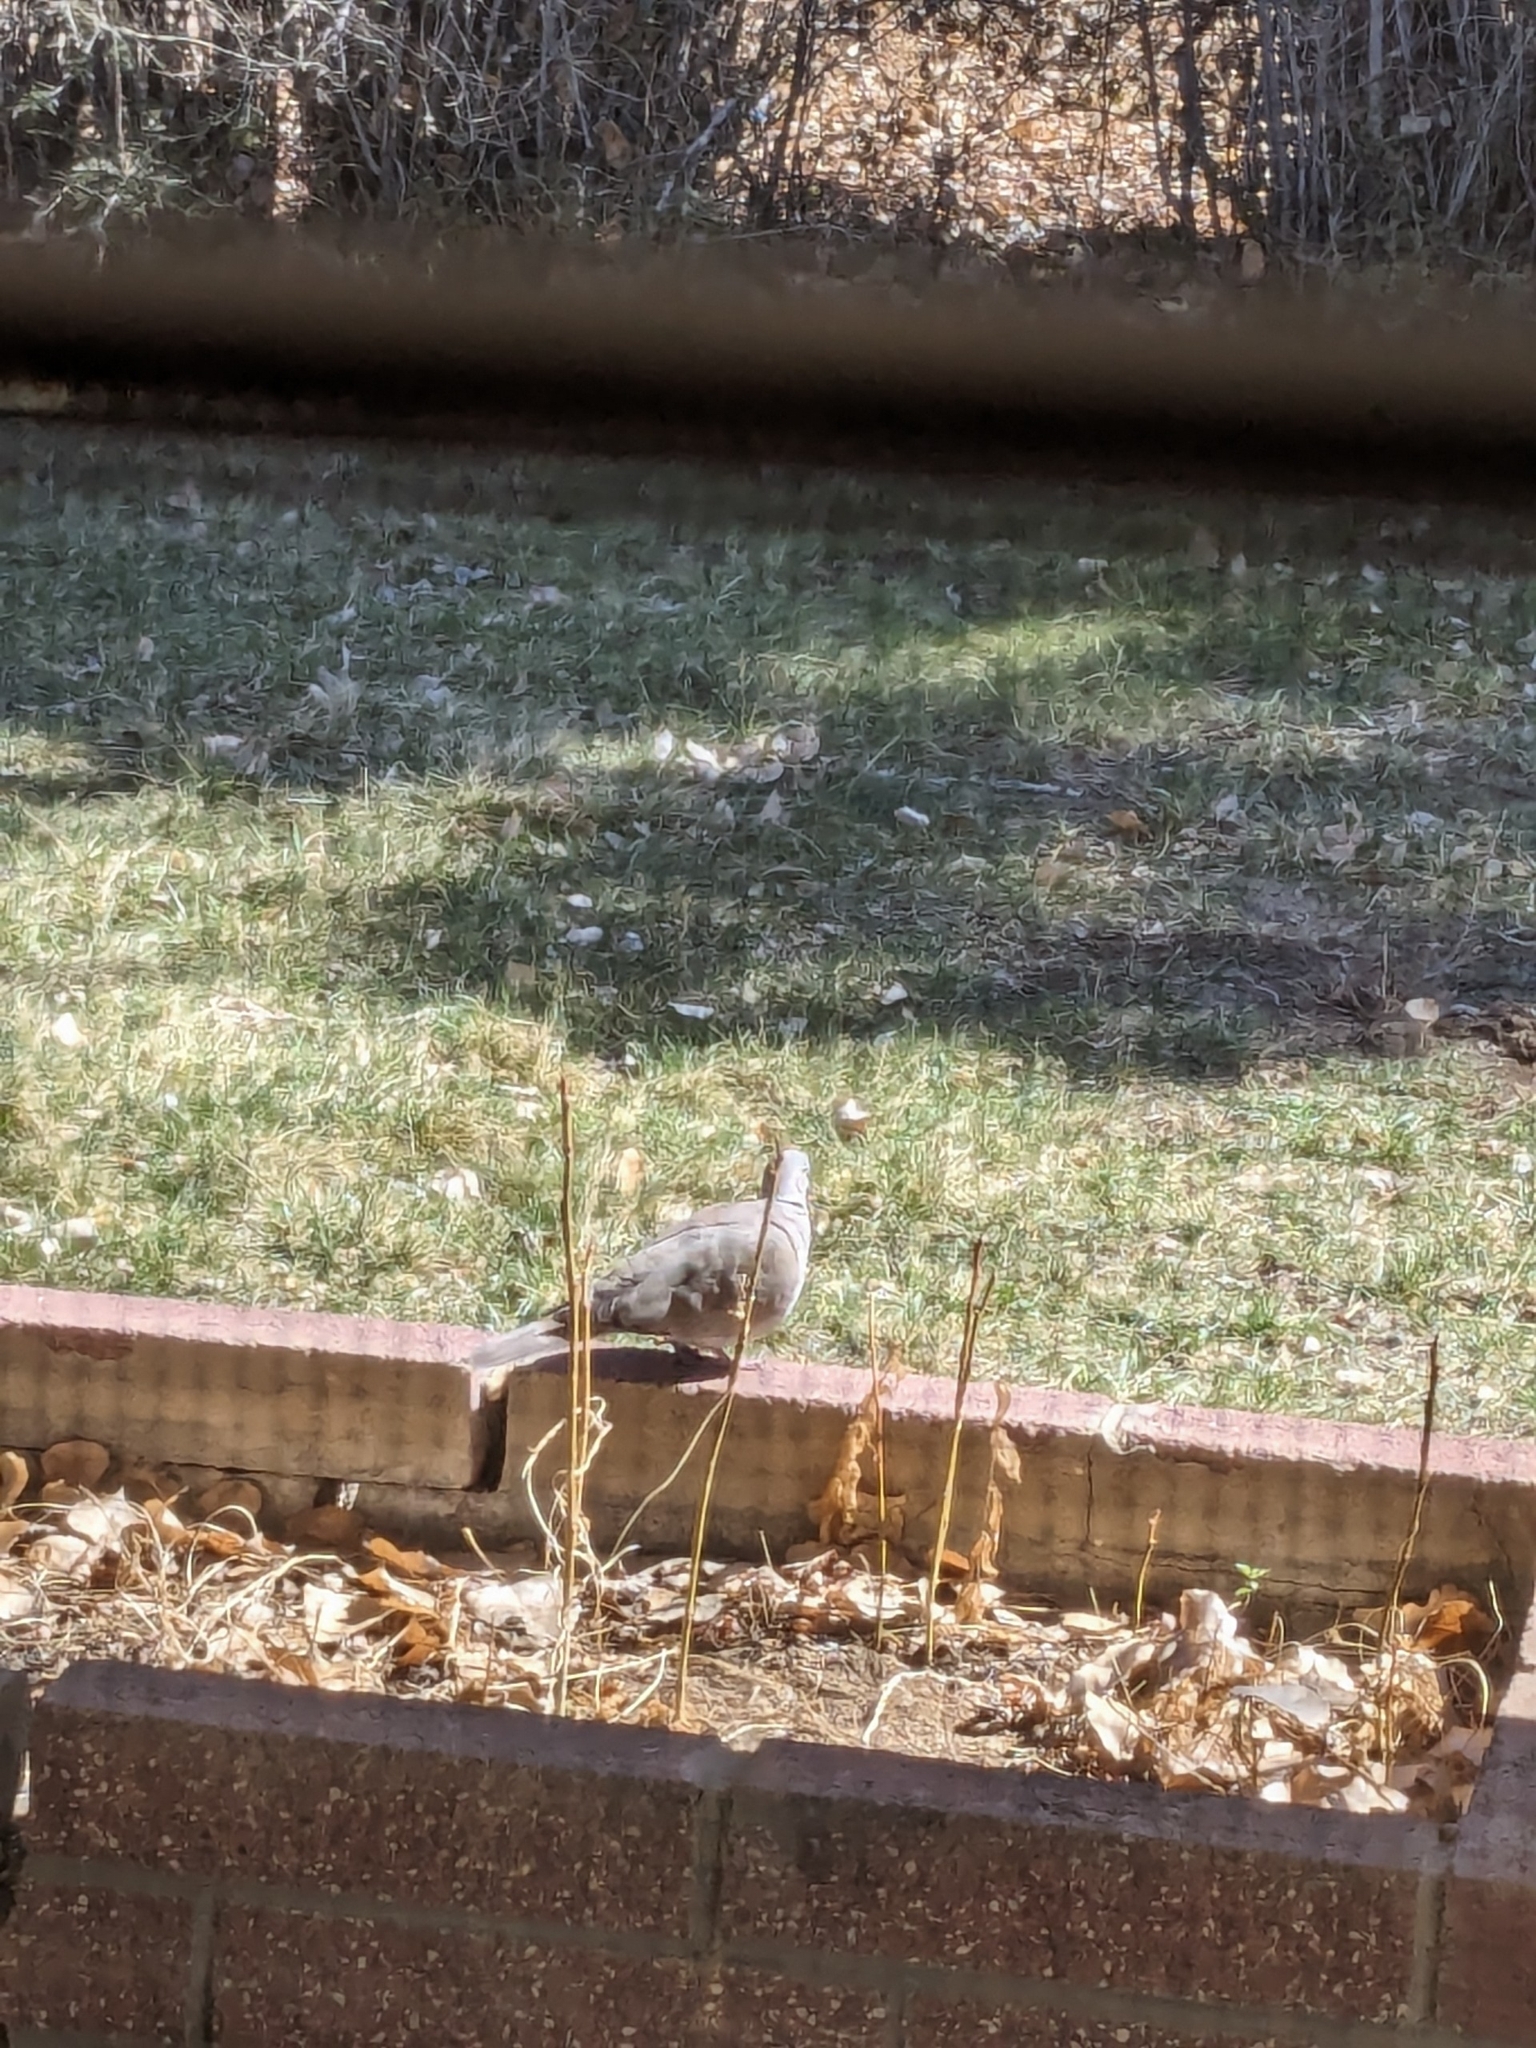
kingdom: Animalia
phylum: Chordata
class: Aves
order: Columbiformes
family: Columbidae
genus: Streptopelia
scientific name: Streptopelia decaocto
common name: Eurasian collared dove
